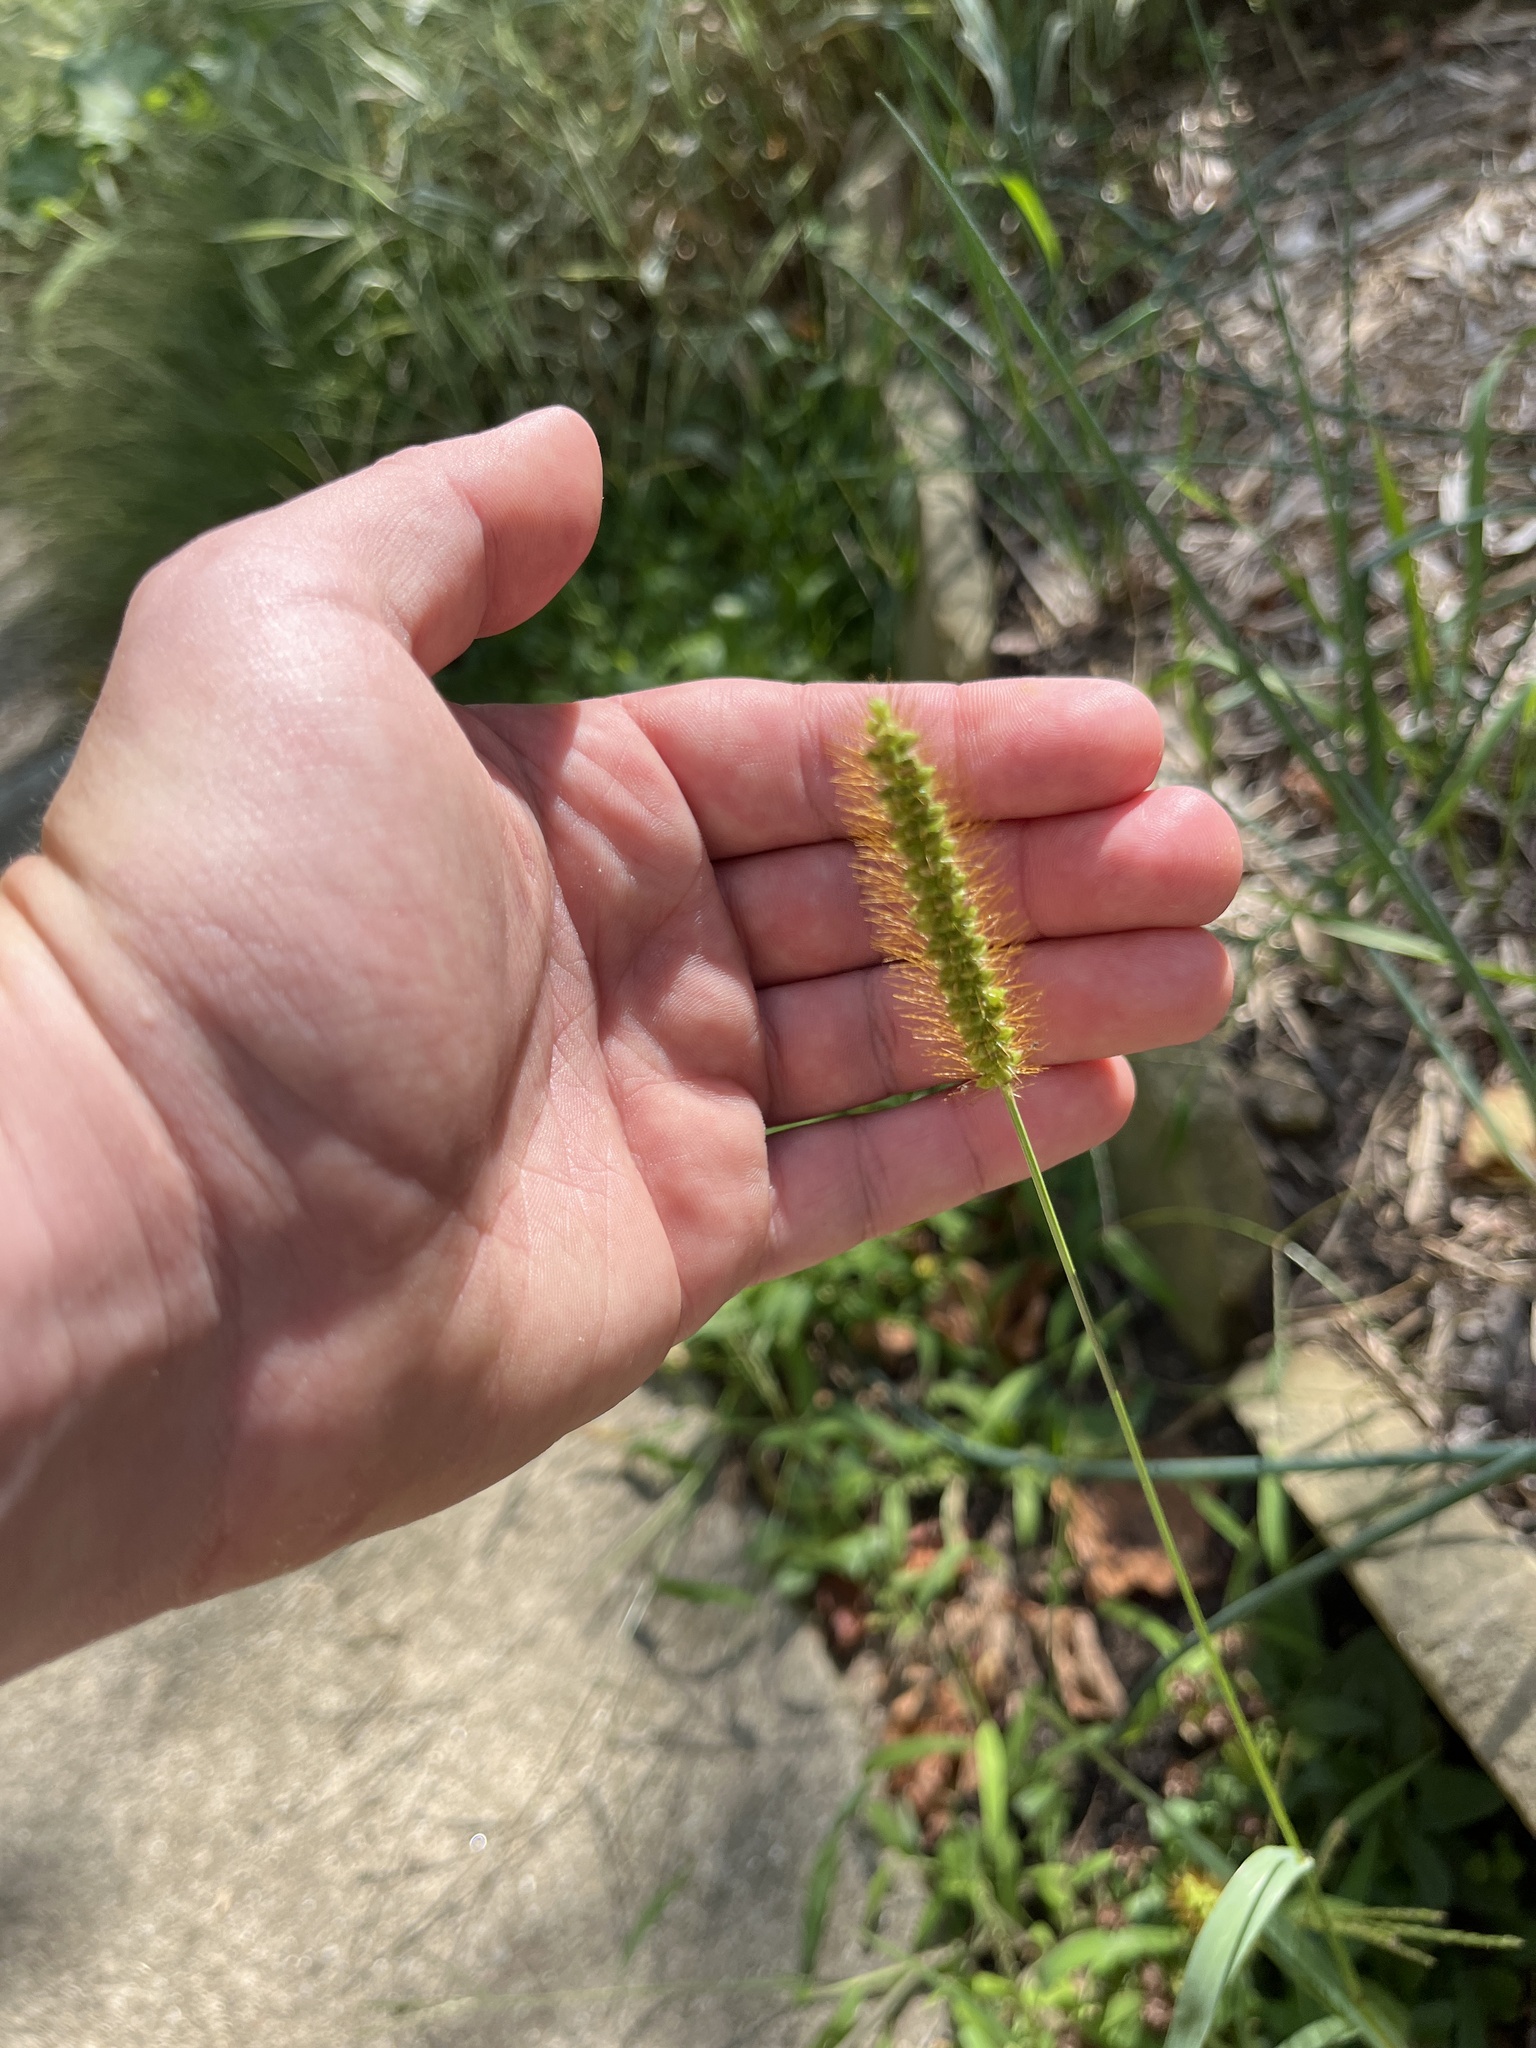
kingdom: Plantae
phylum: Tracheophyta
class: Liliopsida
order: Poales
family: Poaceae
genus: Setaria
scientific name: Setaria pumila
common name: Yellow bristle-grass
